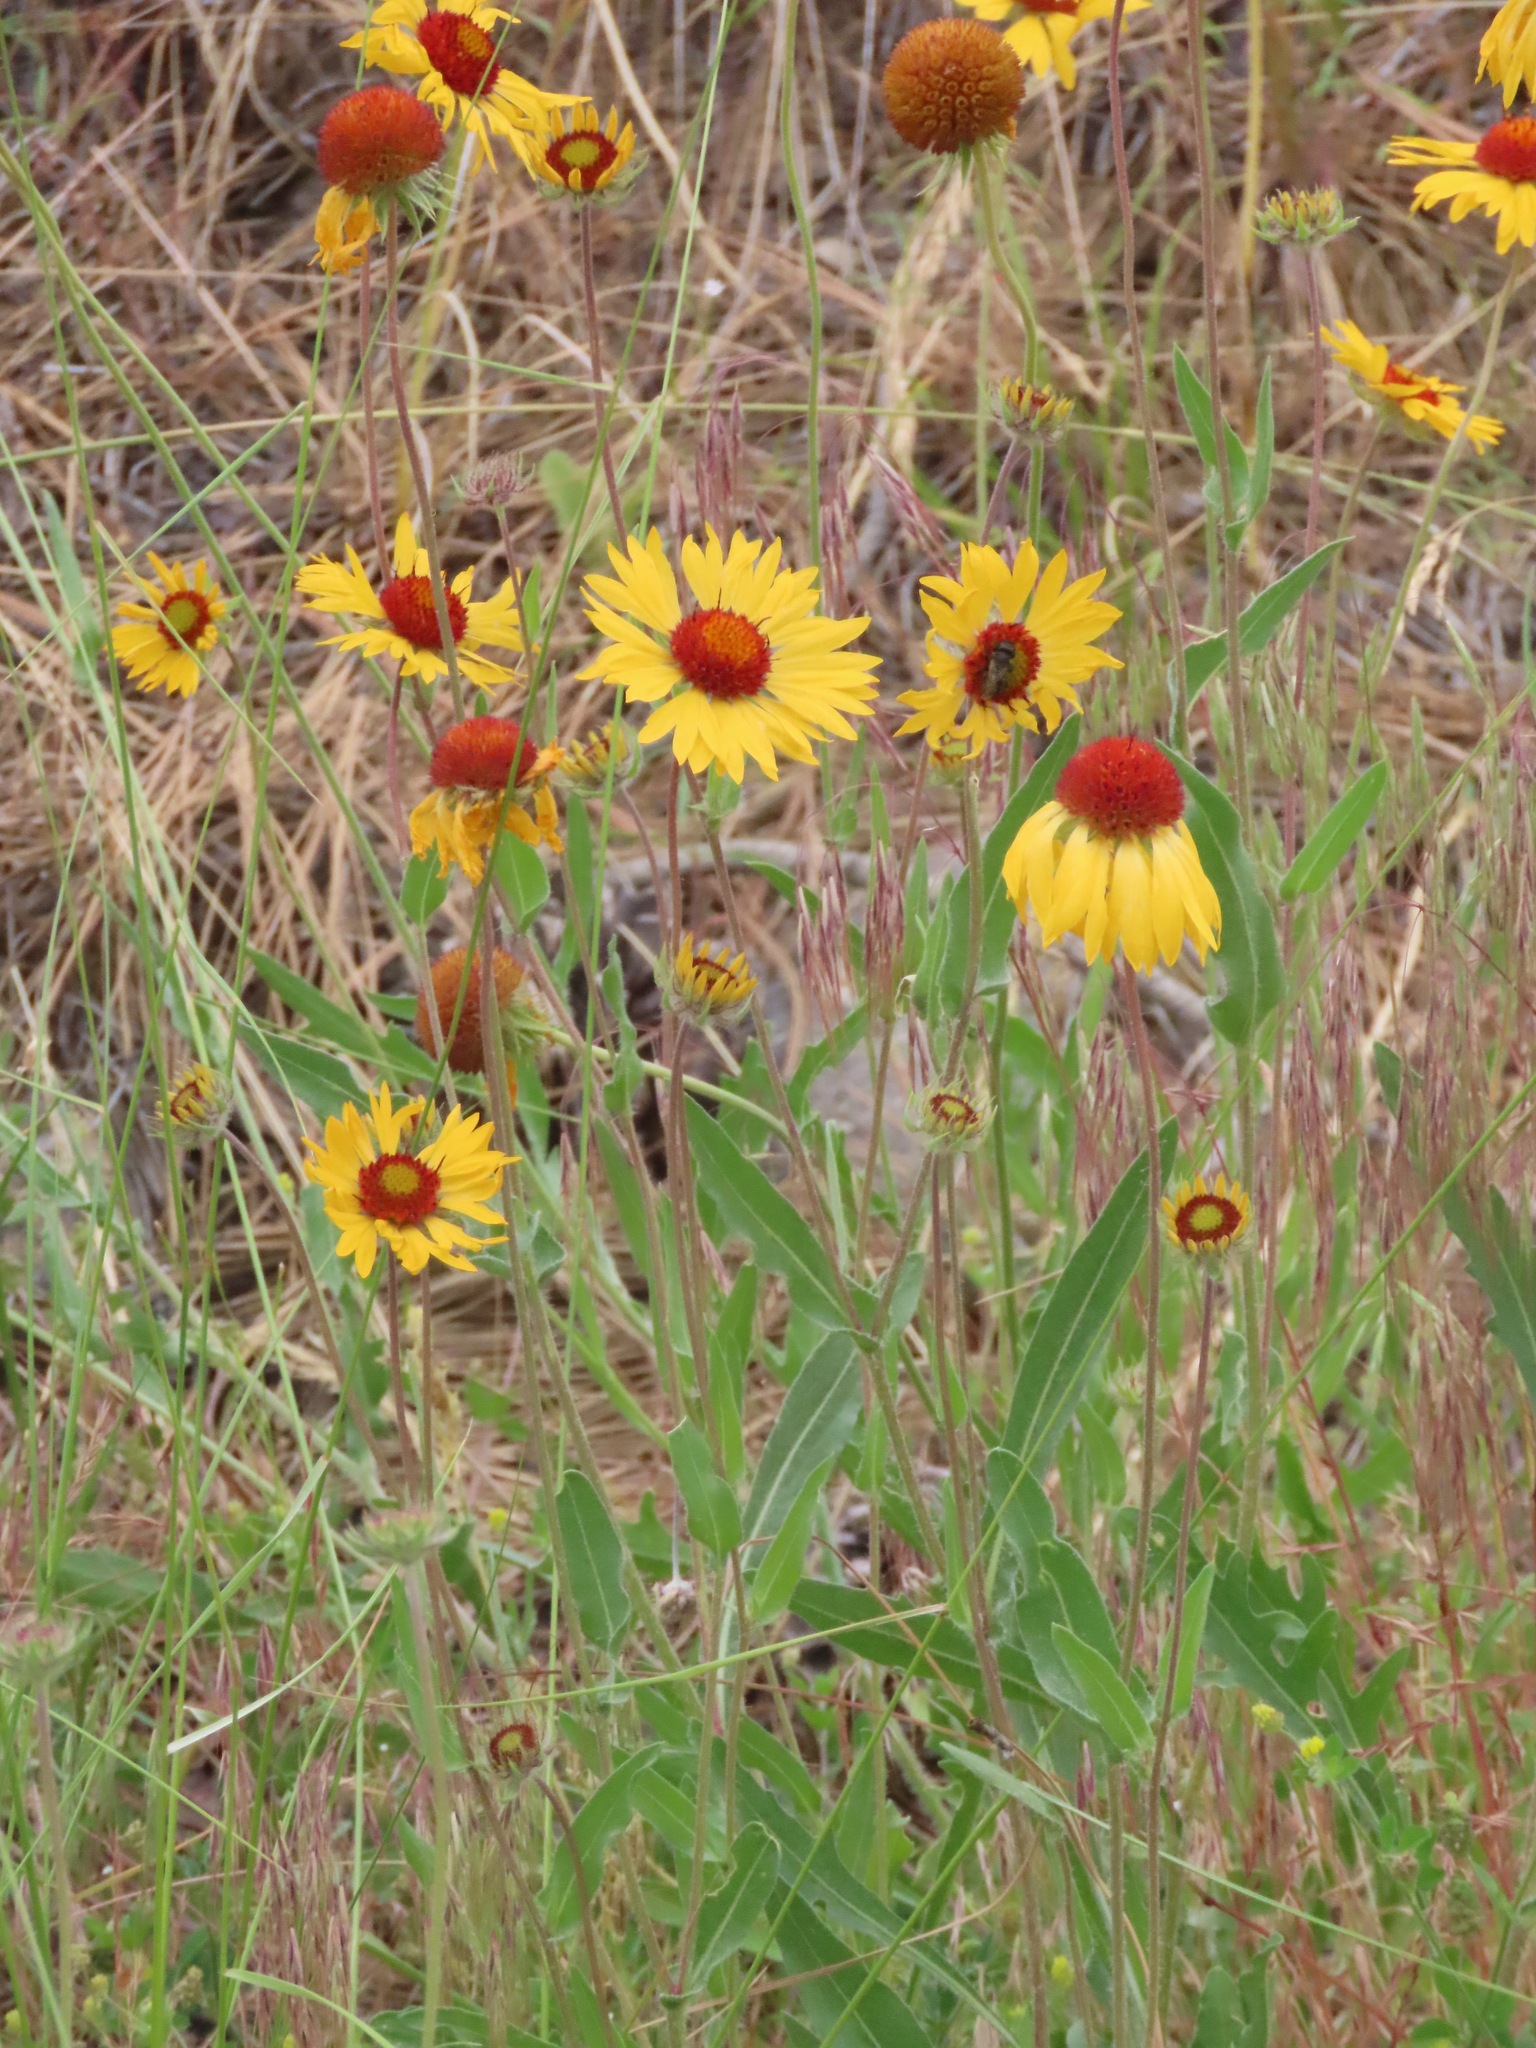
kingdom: Plantae
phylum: Tracheophyta
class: Magnoliopsida
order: Asterales
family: Asteraceae
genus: Gaillardia
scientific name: Gaillardia aristata
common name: Blanket-flower
